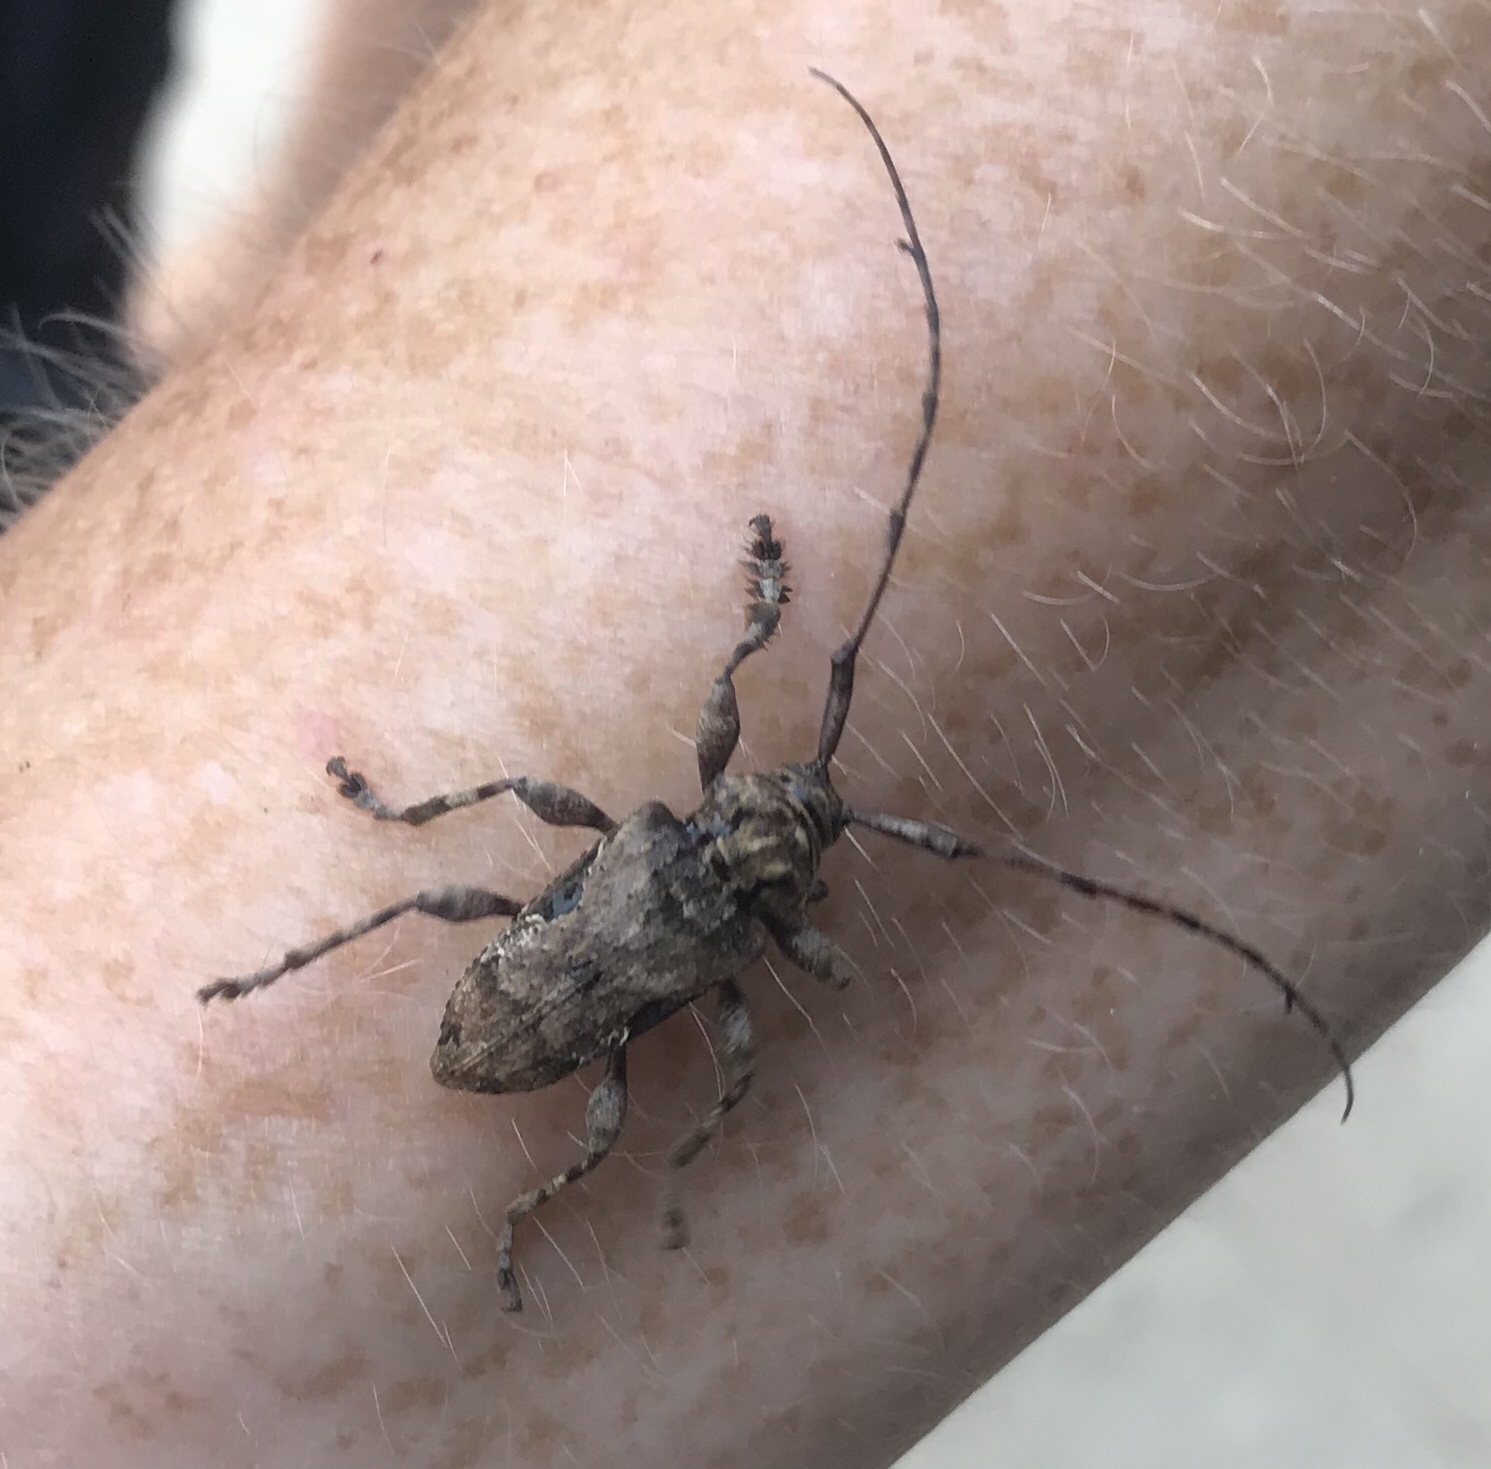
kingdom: Animalia
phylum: Arthropoda
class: Insecta
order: Coleoptera
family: Cerambycidae
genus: Lagocheirus
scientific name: Lagocheirus araneiformis
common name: Beetle
